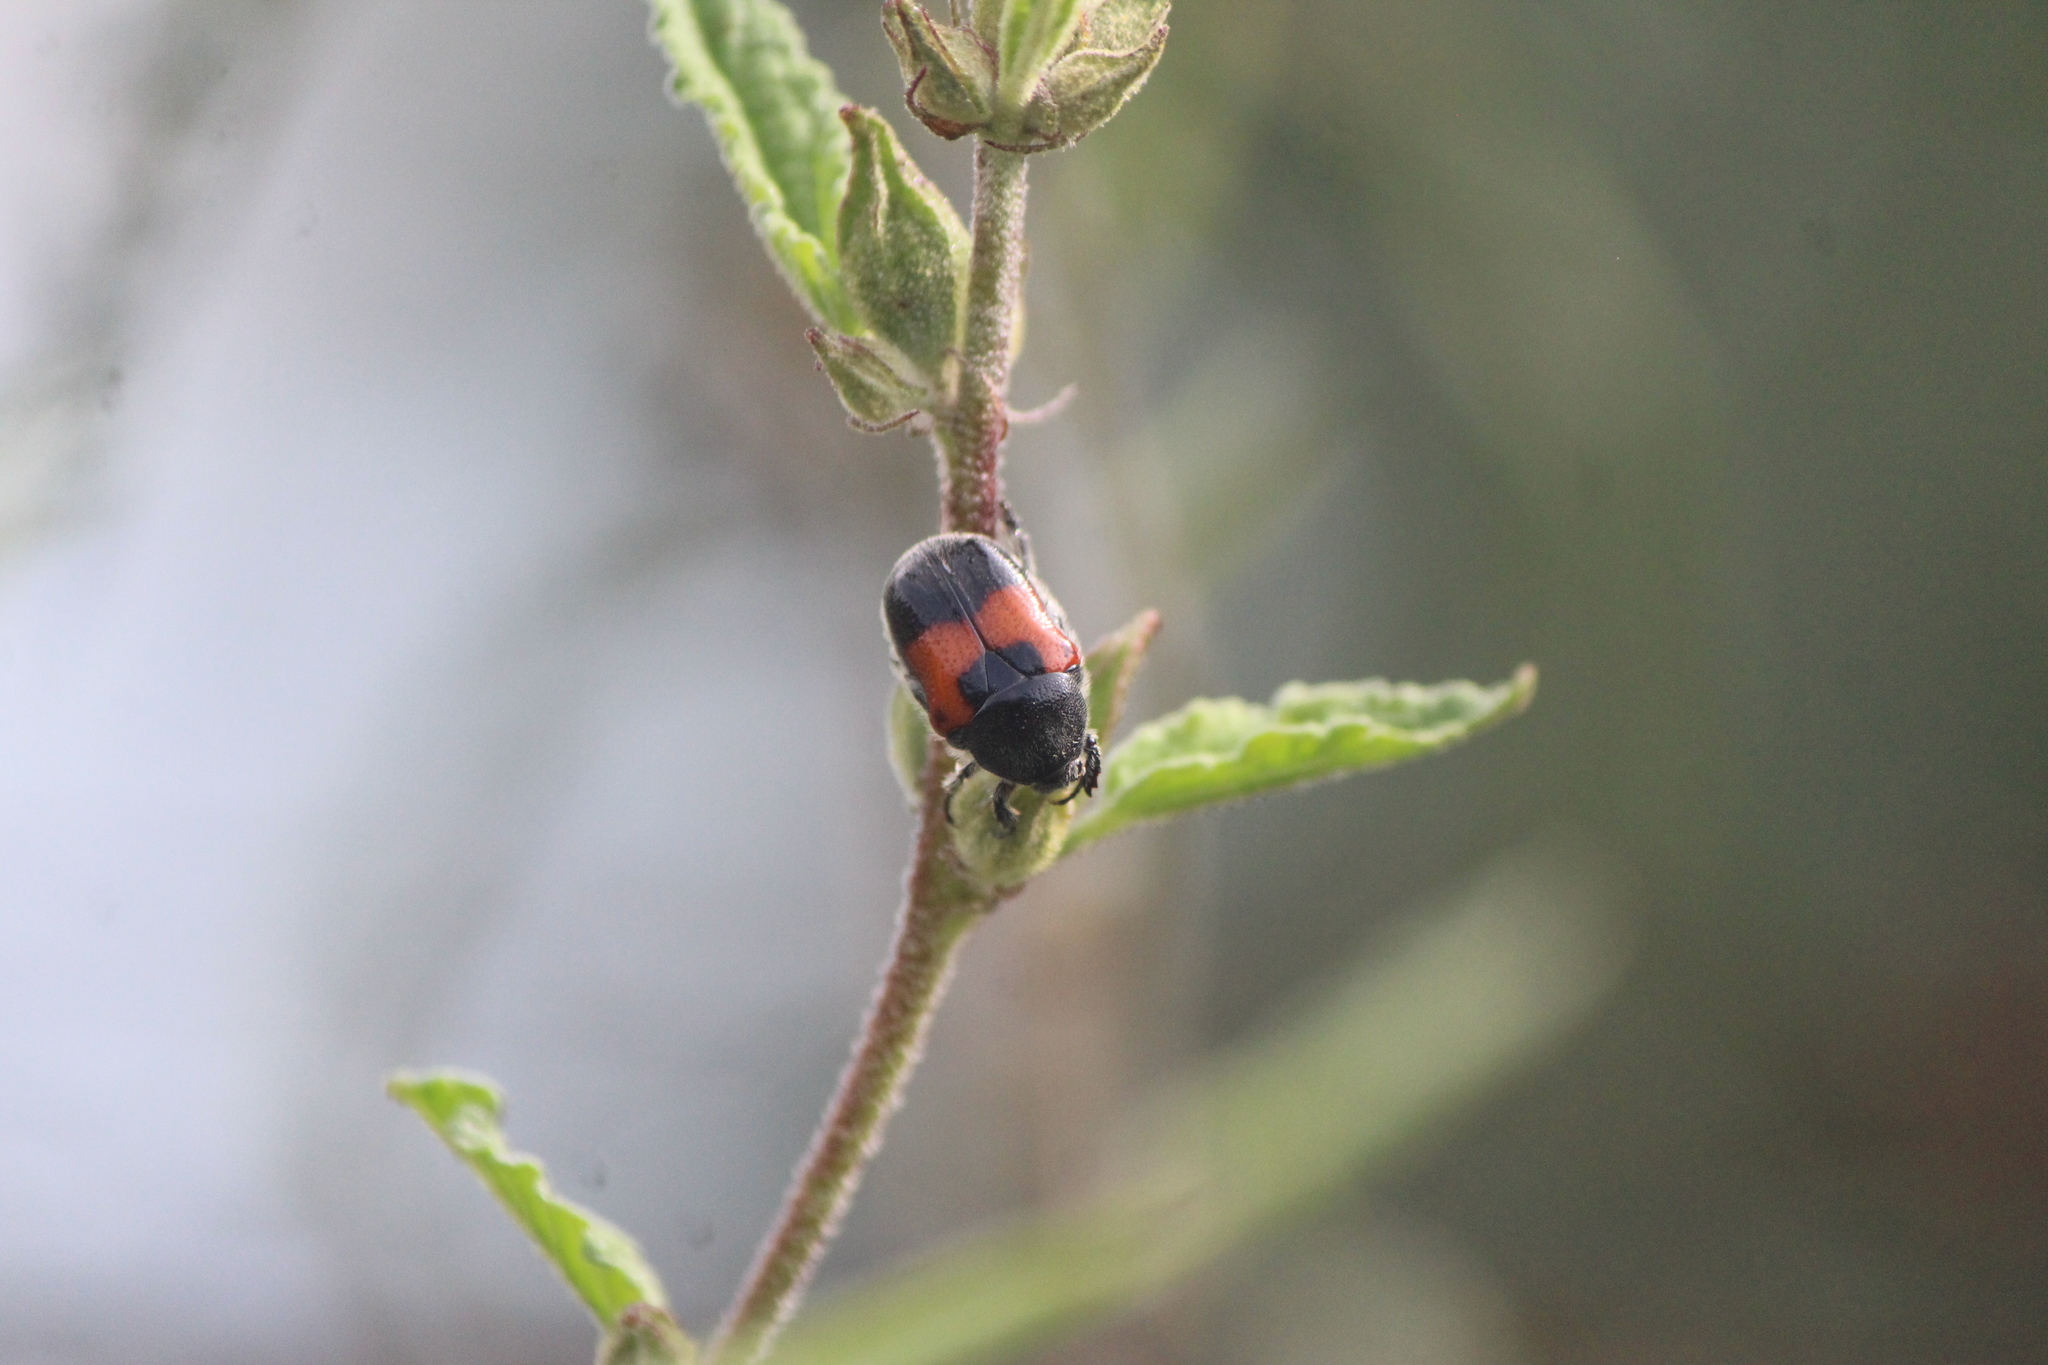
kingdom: Animalia
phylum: Arthropoda
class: Insecta
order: Coleoptera
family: Scarabaeidae
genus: Euphoria
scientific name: Euphoria dimidiata
